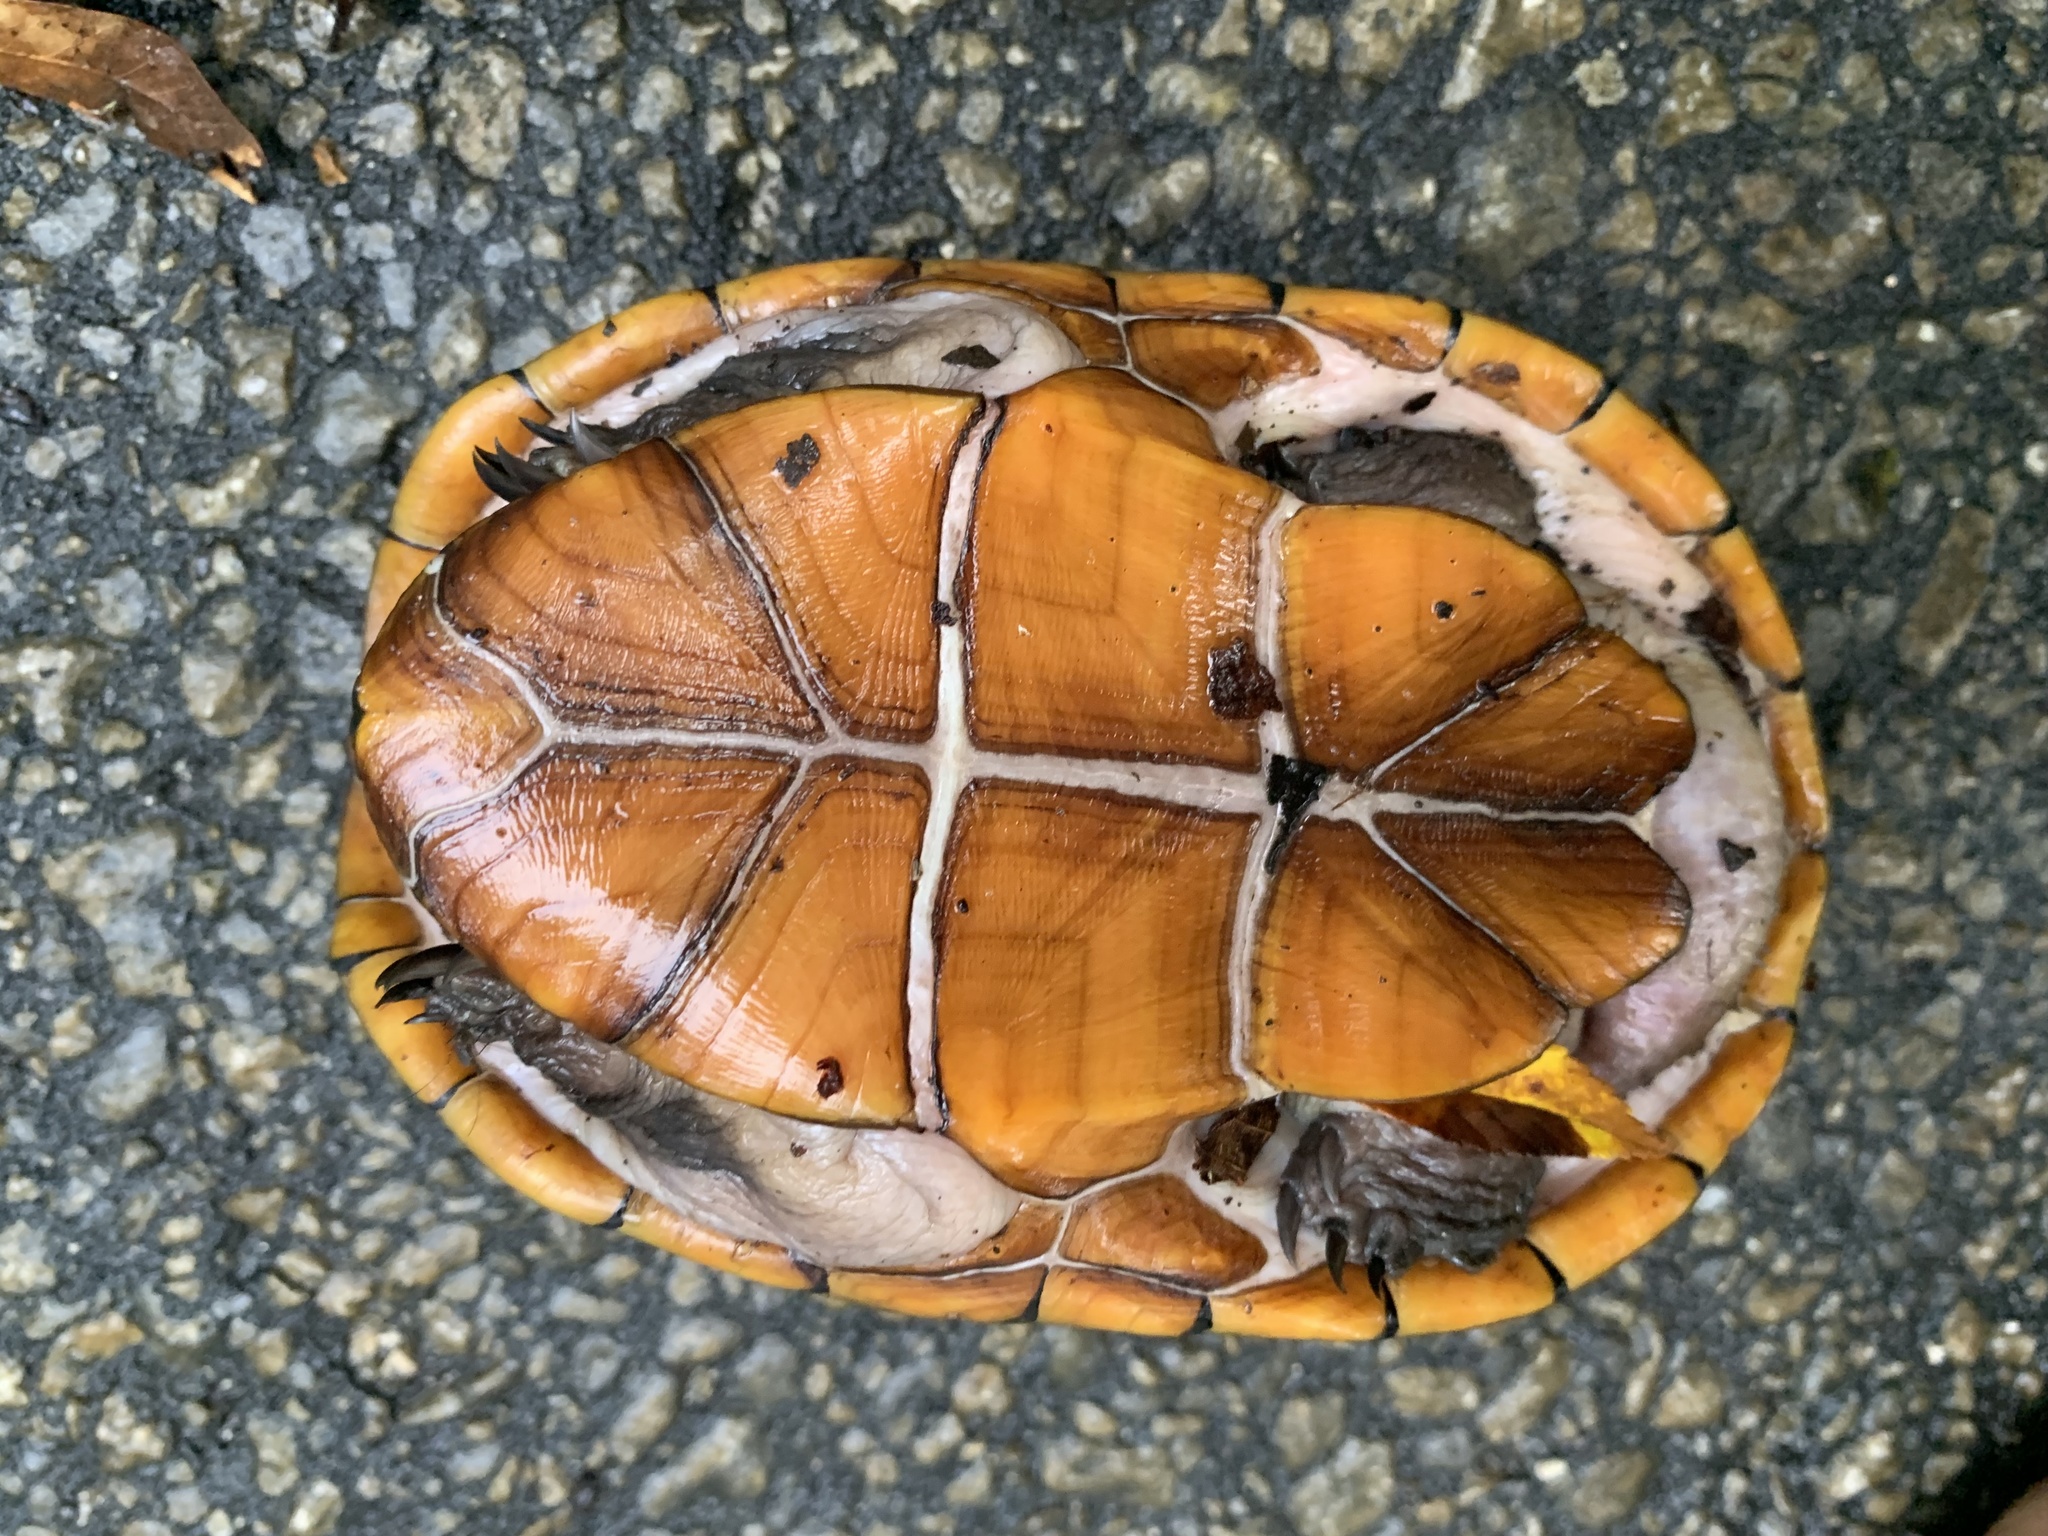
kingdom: Animalia
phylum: Chordata
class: Testudines
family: Kinosternidae
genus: Kinosternon
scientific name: Kinosternon steindachneri
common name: Florida mud turtle
